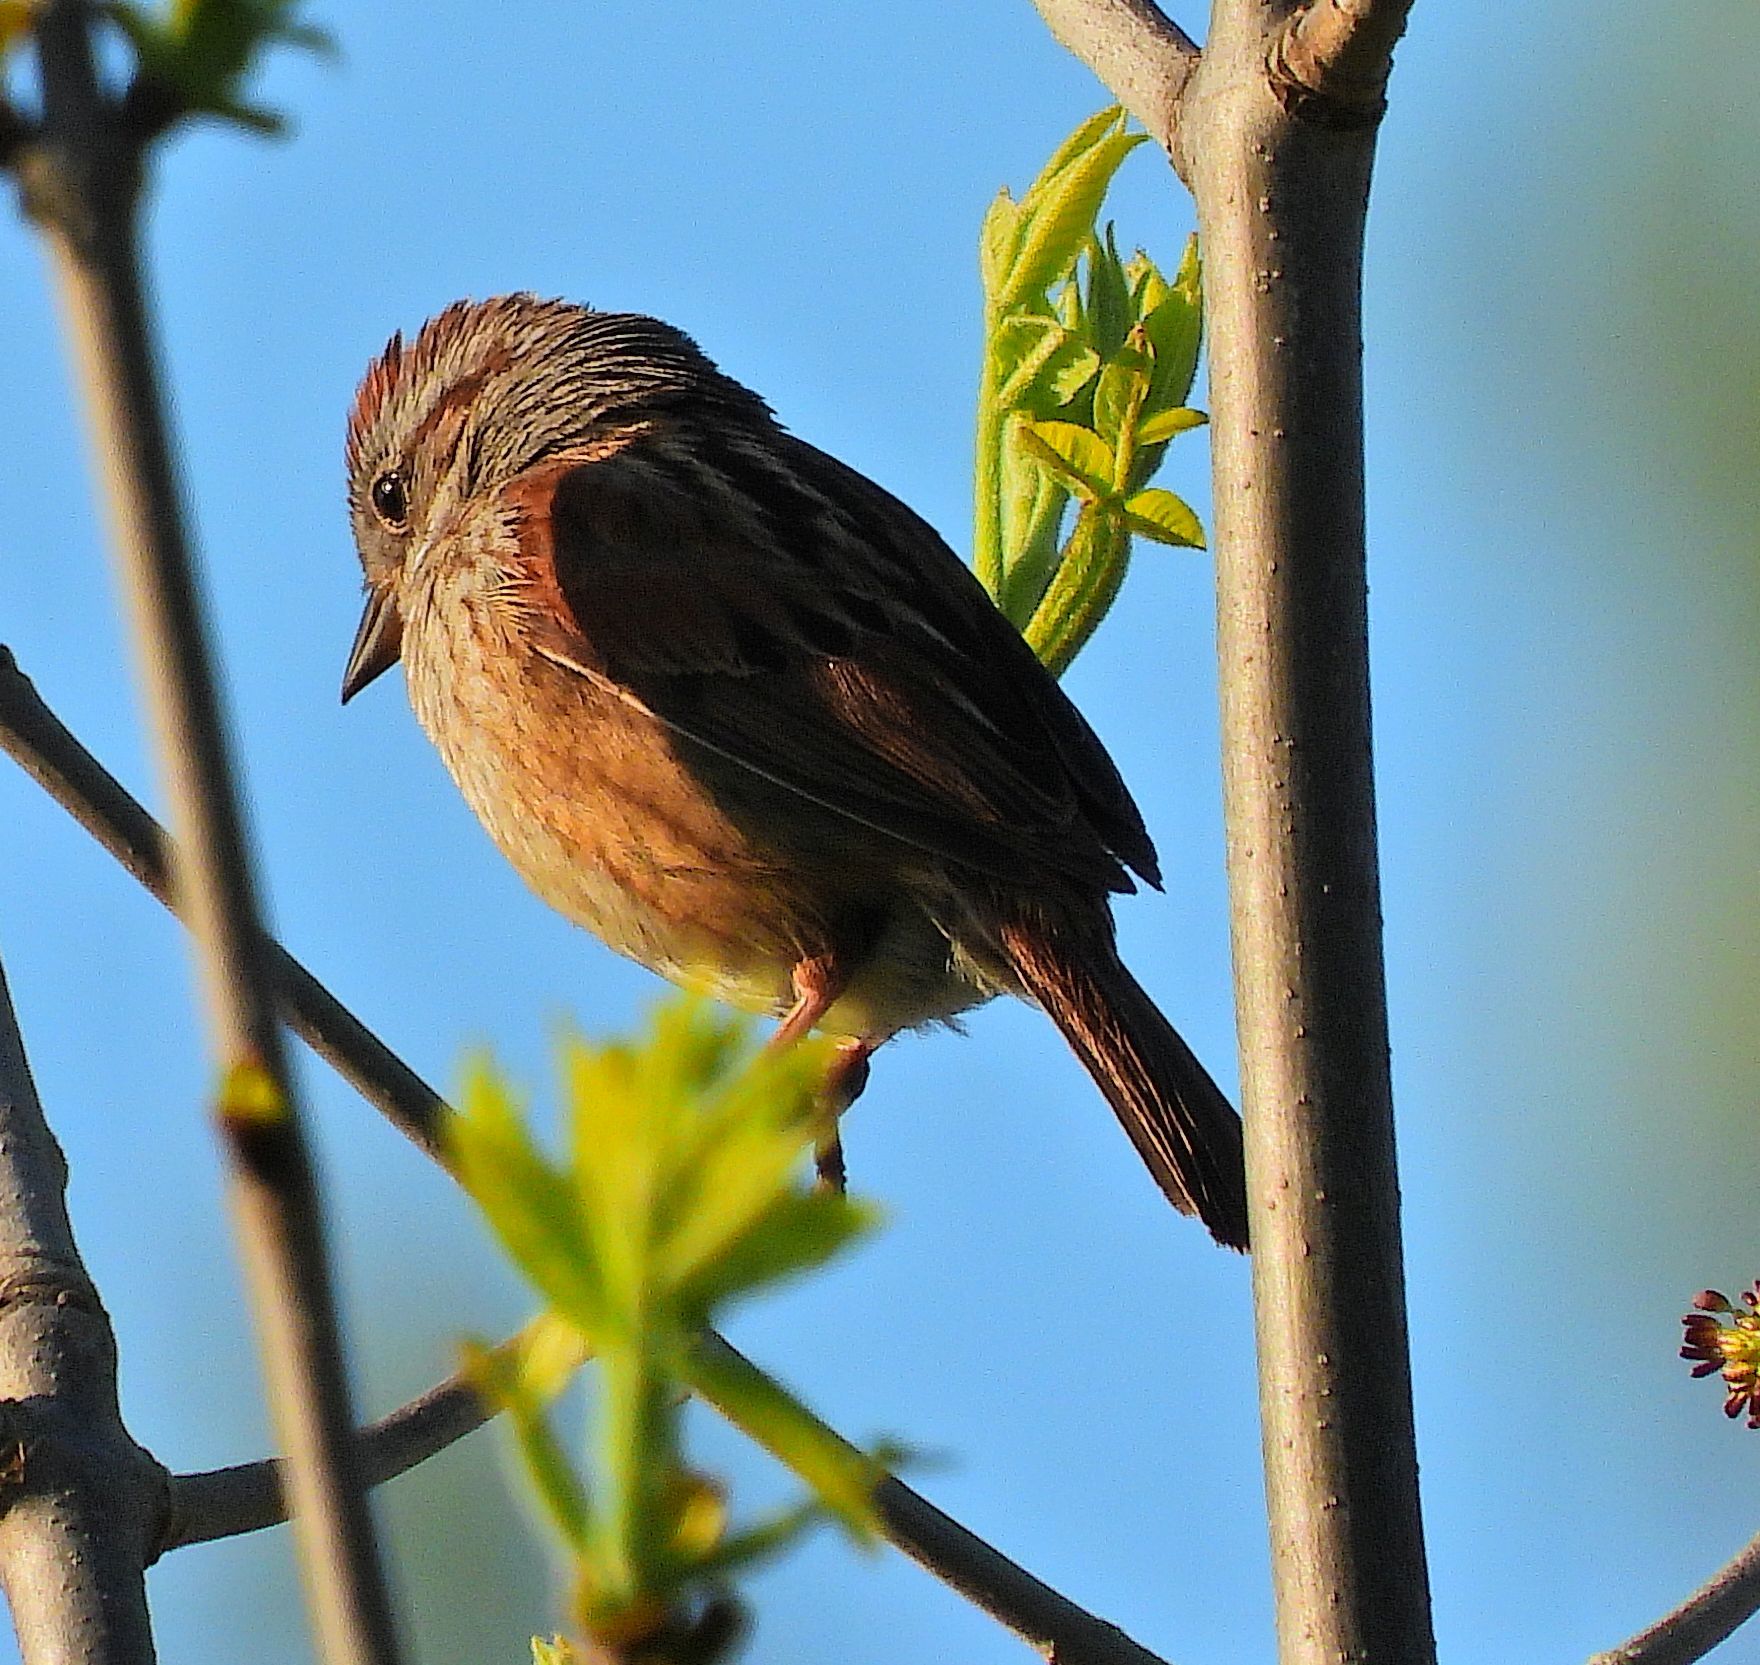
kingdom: Animalia
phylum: Chordata
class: Aves
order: Passeriformes
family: Passerellidae
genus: Melospiza
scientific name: Melospiza georgiana
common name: Swamp sparrow
